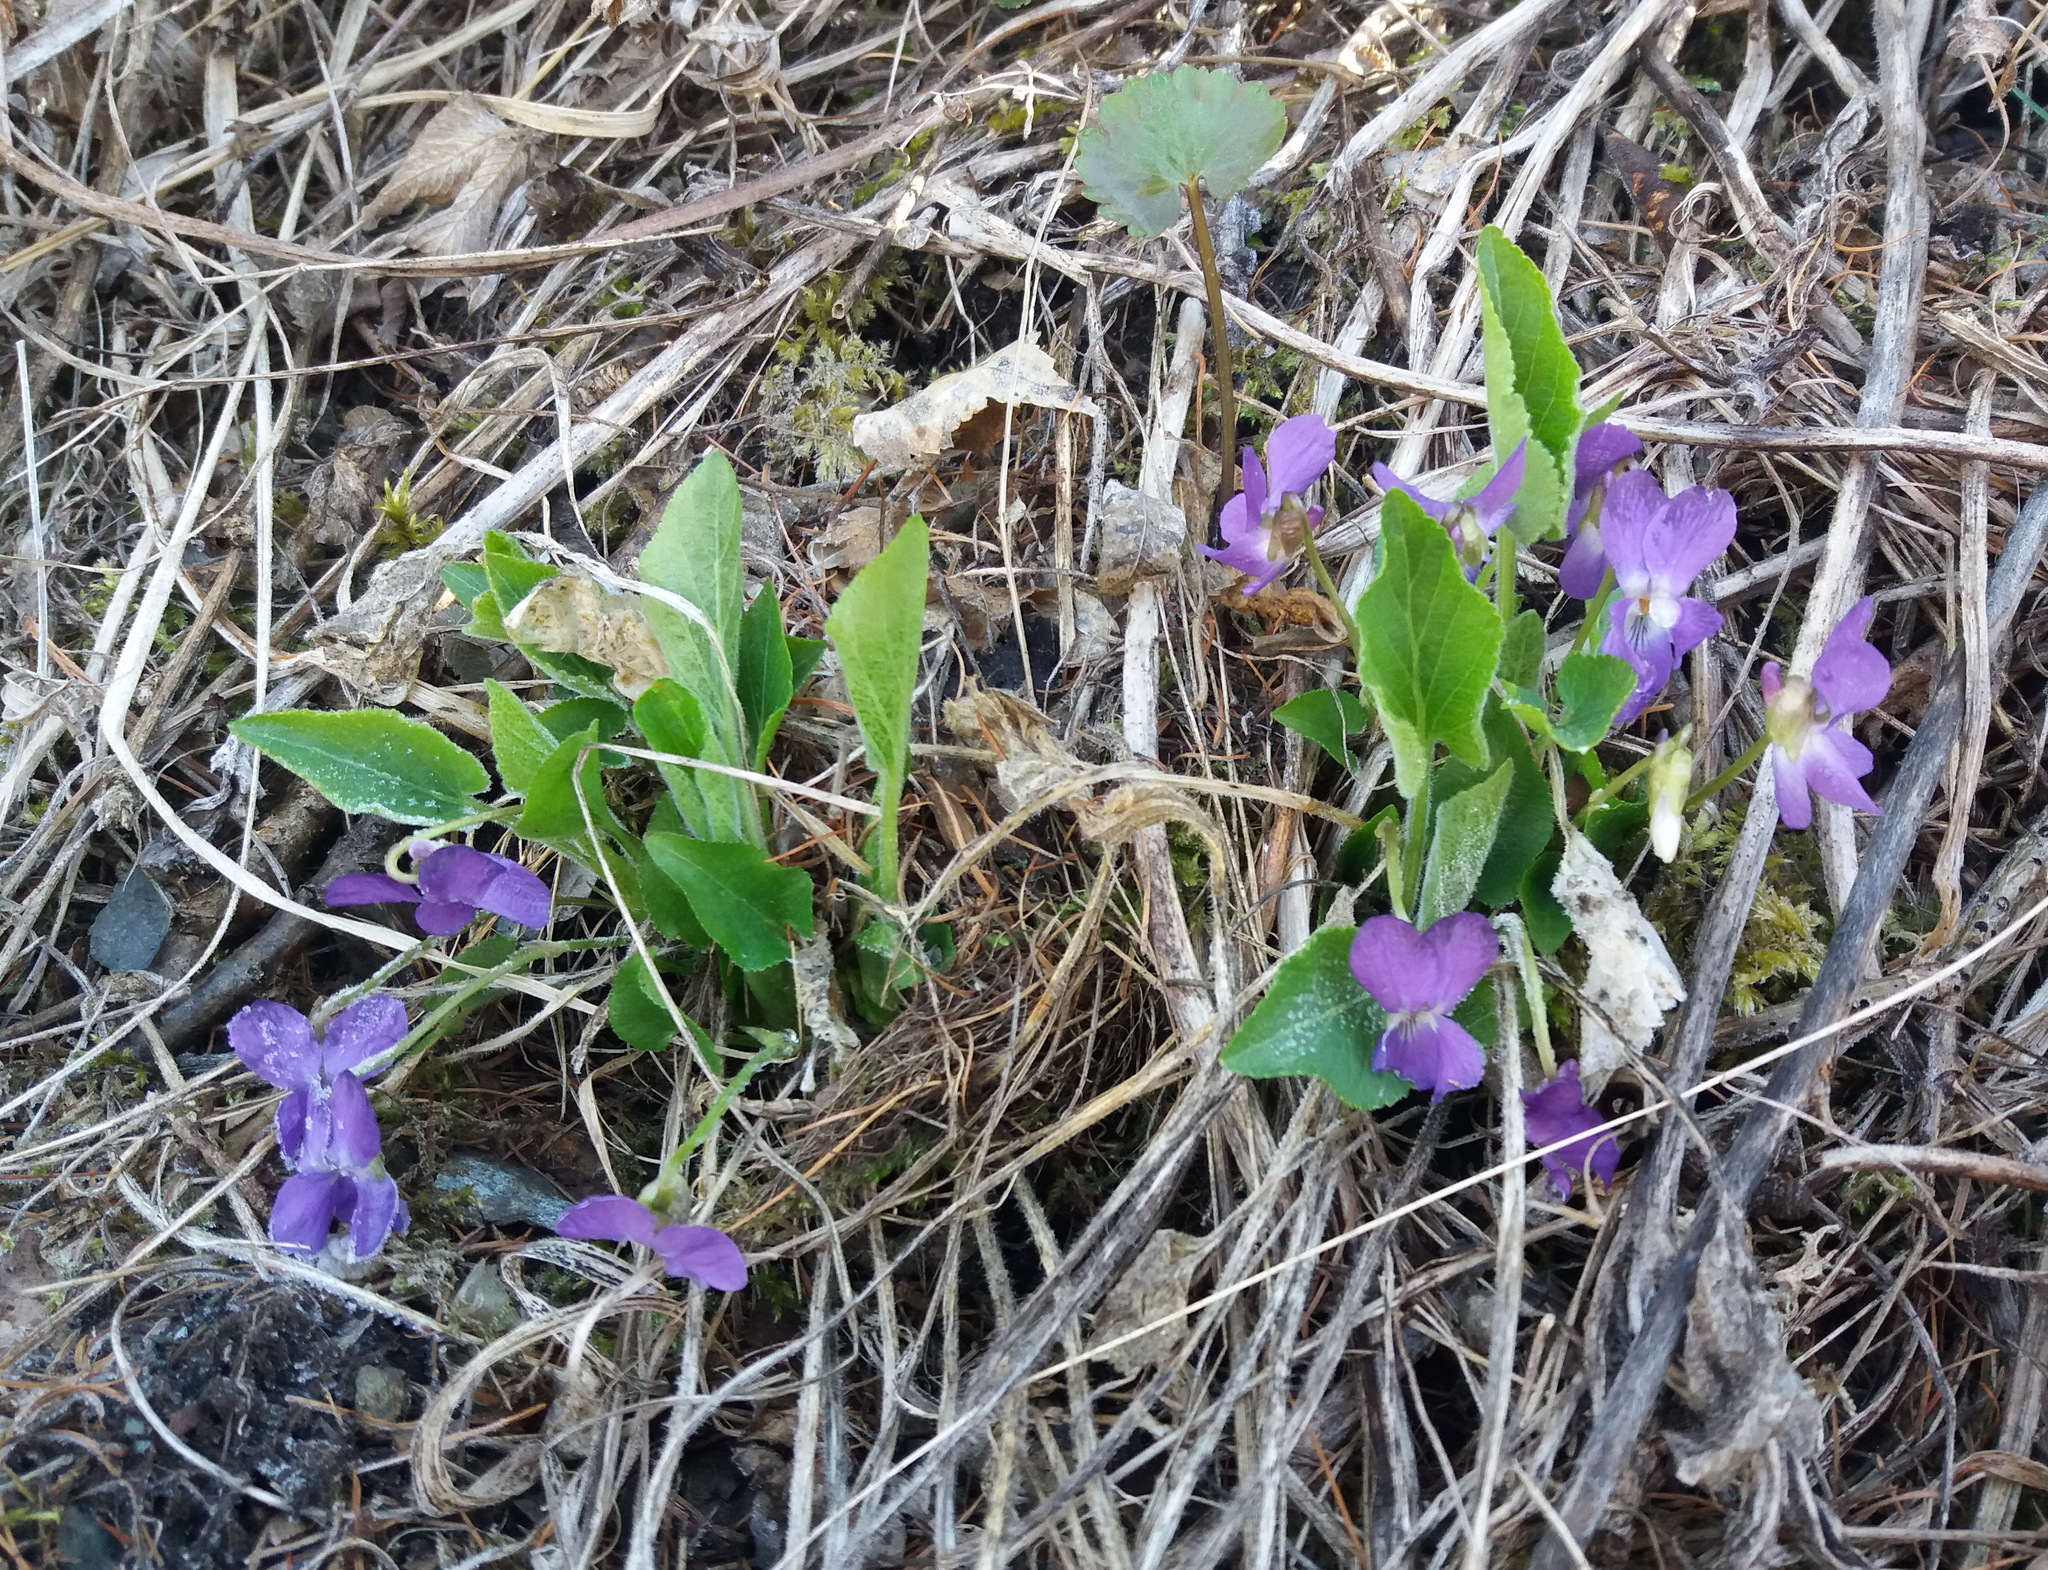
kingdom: Plantae
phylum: Tracheophyta
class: Magnoliopsida
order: Malpighiales
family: Violaceae
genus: Viola
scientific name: Viola hirta
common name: Hairy violet
